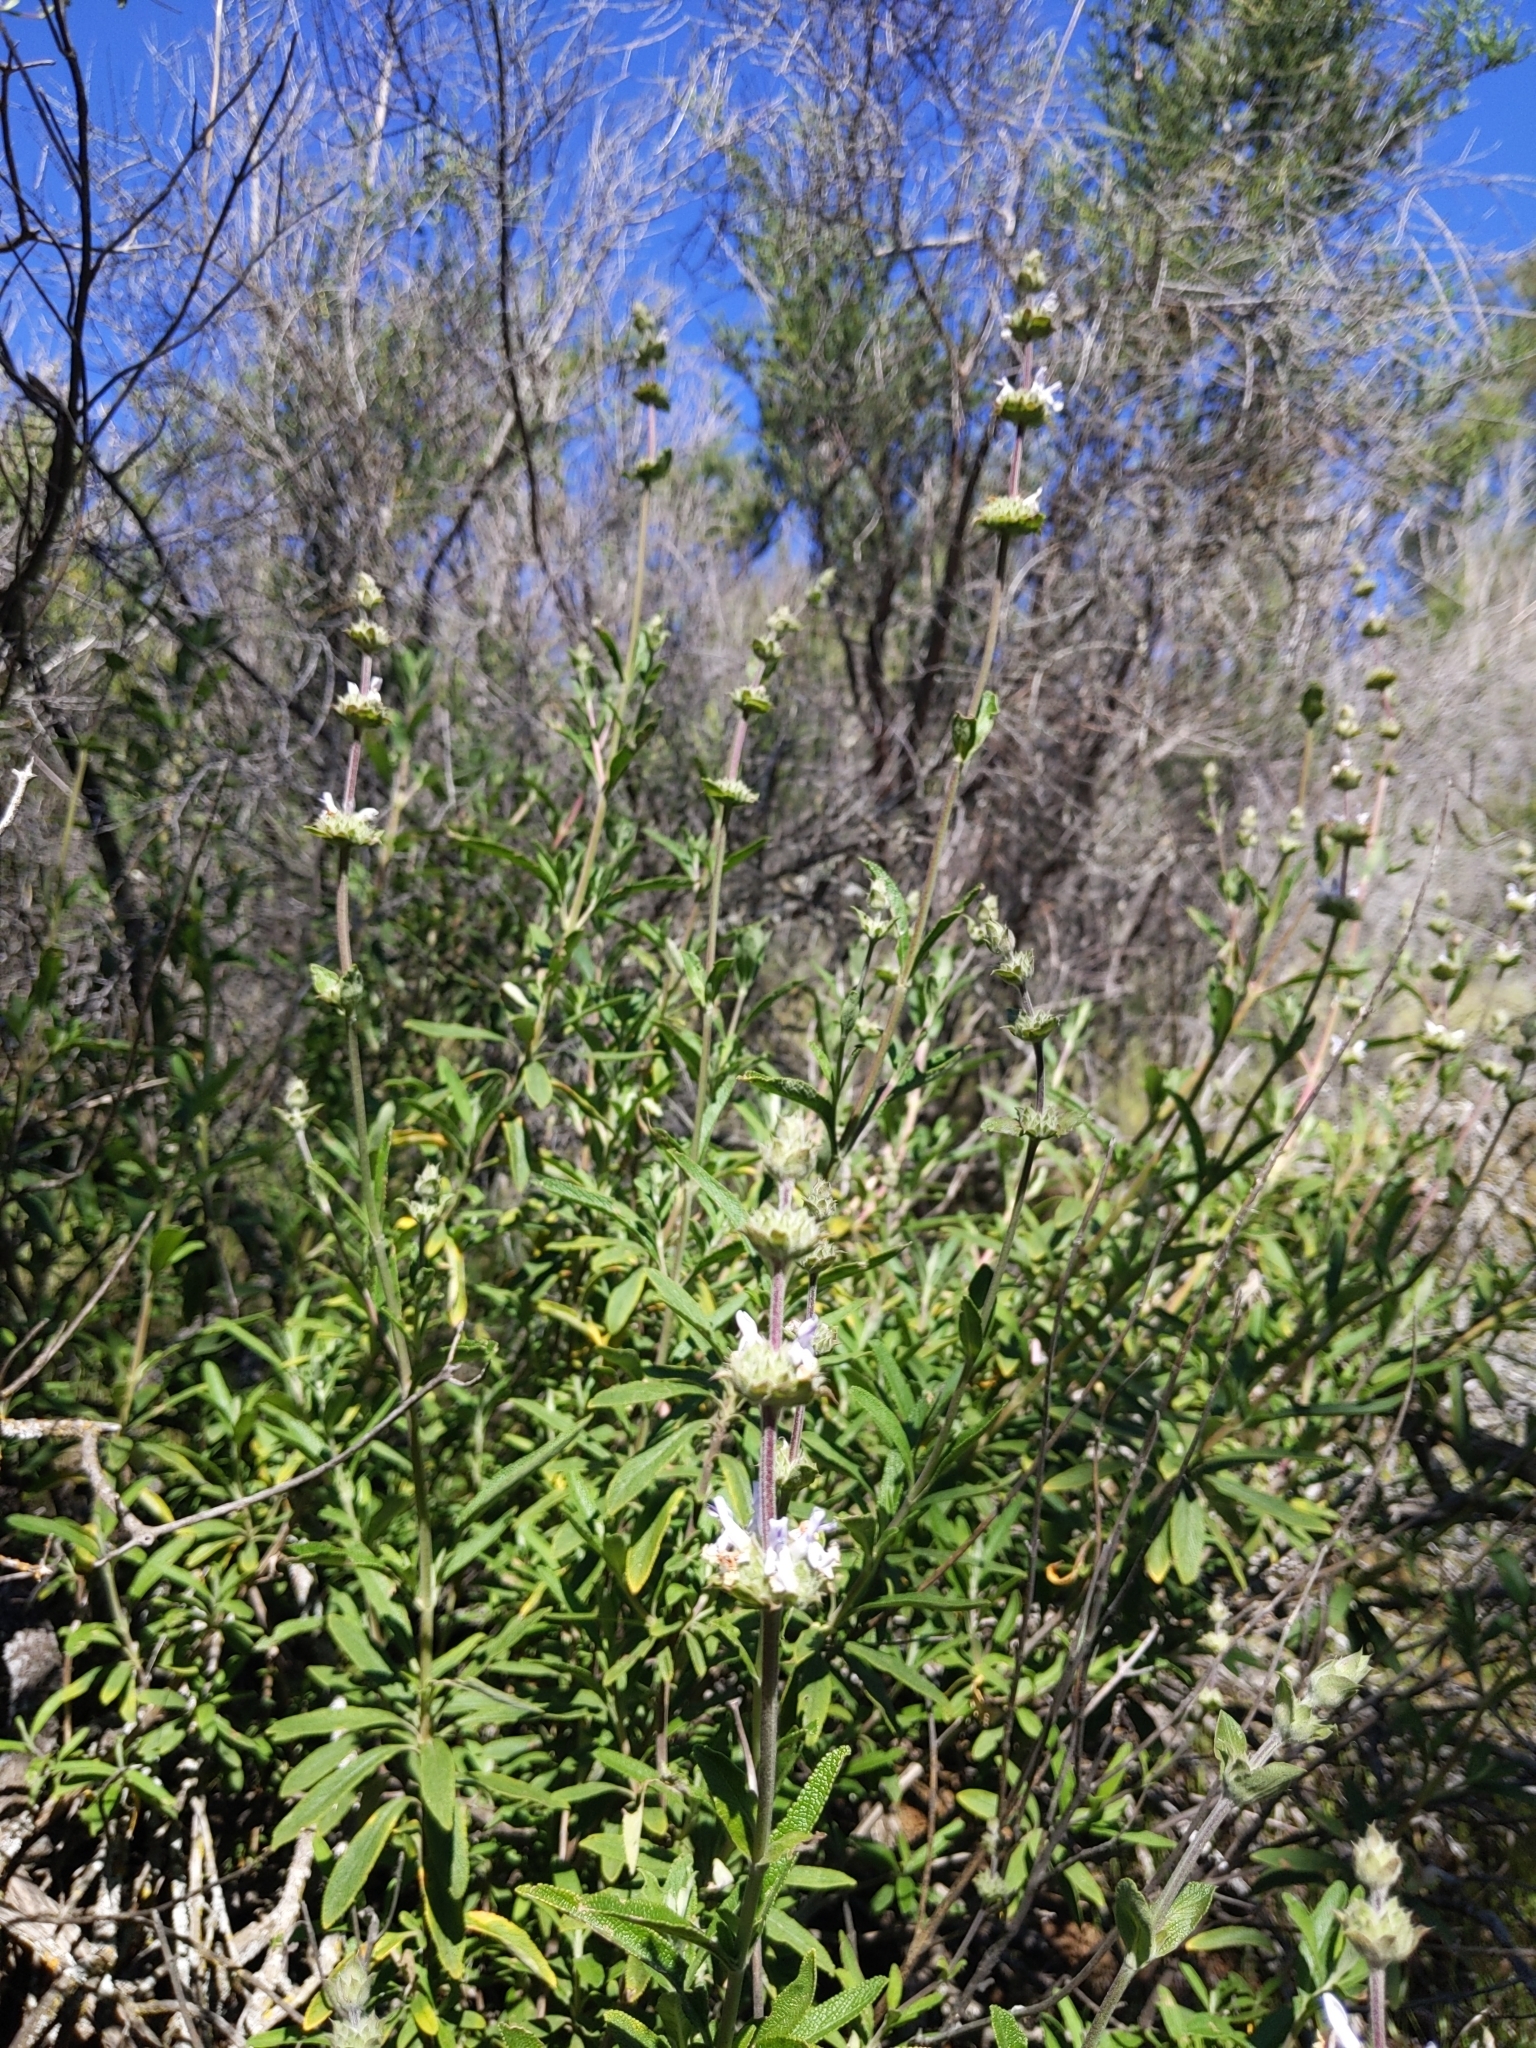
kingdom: Plantae
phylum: Tracheophyta
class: Magnoliopsida
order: Lamiales
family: Lamiaceae
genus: Salvia
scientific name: Salvia mellifera
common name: Black sage
